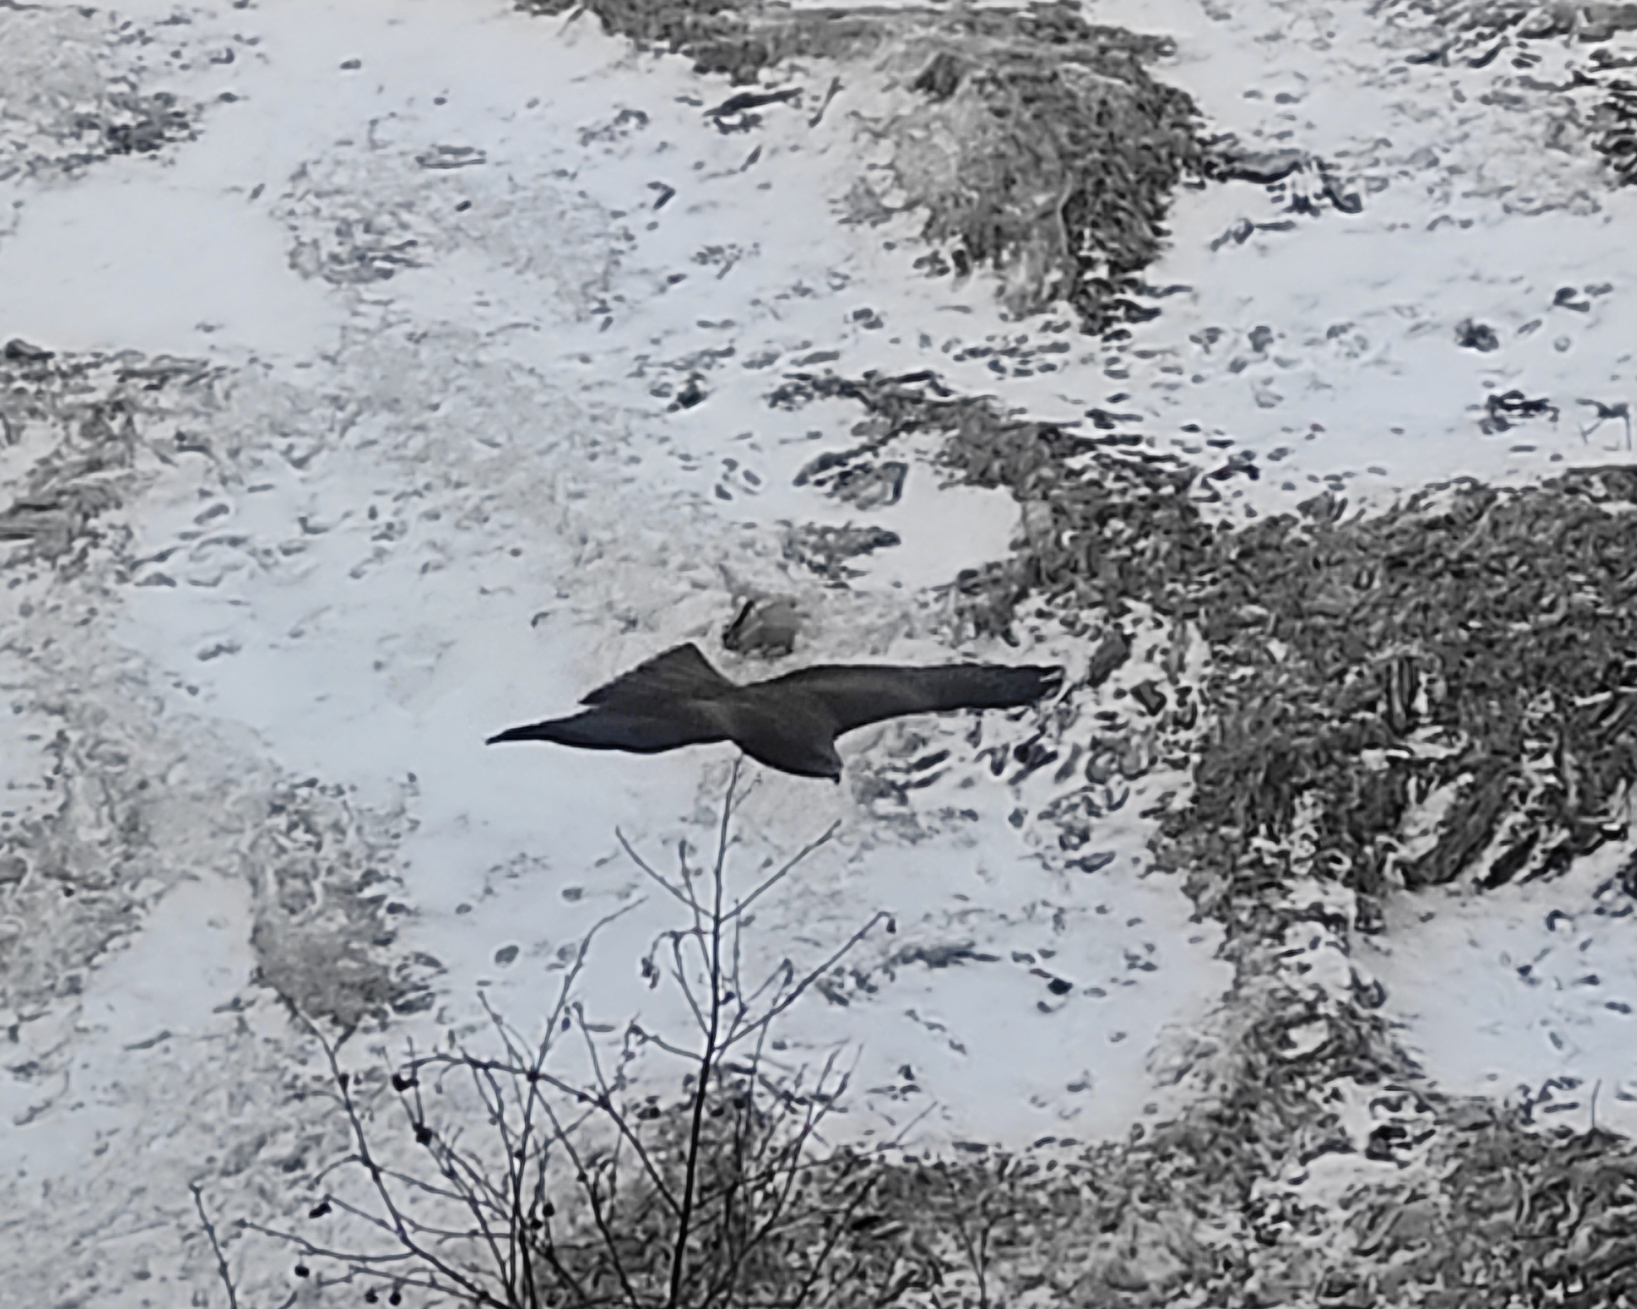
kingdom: Animalia
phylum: Chordata
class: Aves
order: Accipitriformes
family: Accipitridae
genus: Milvus
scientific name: Milvus migrans
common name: Black kite
